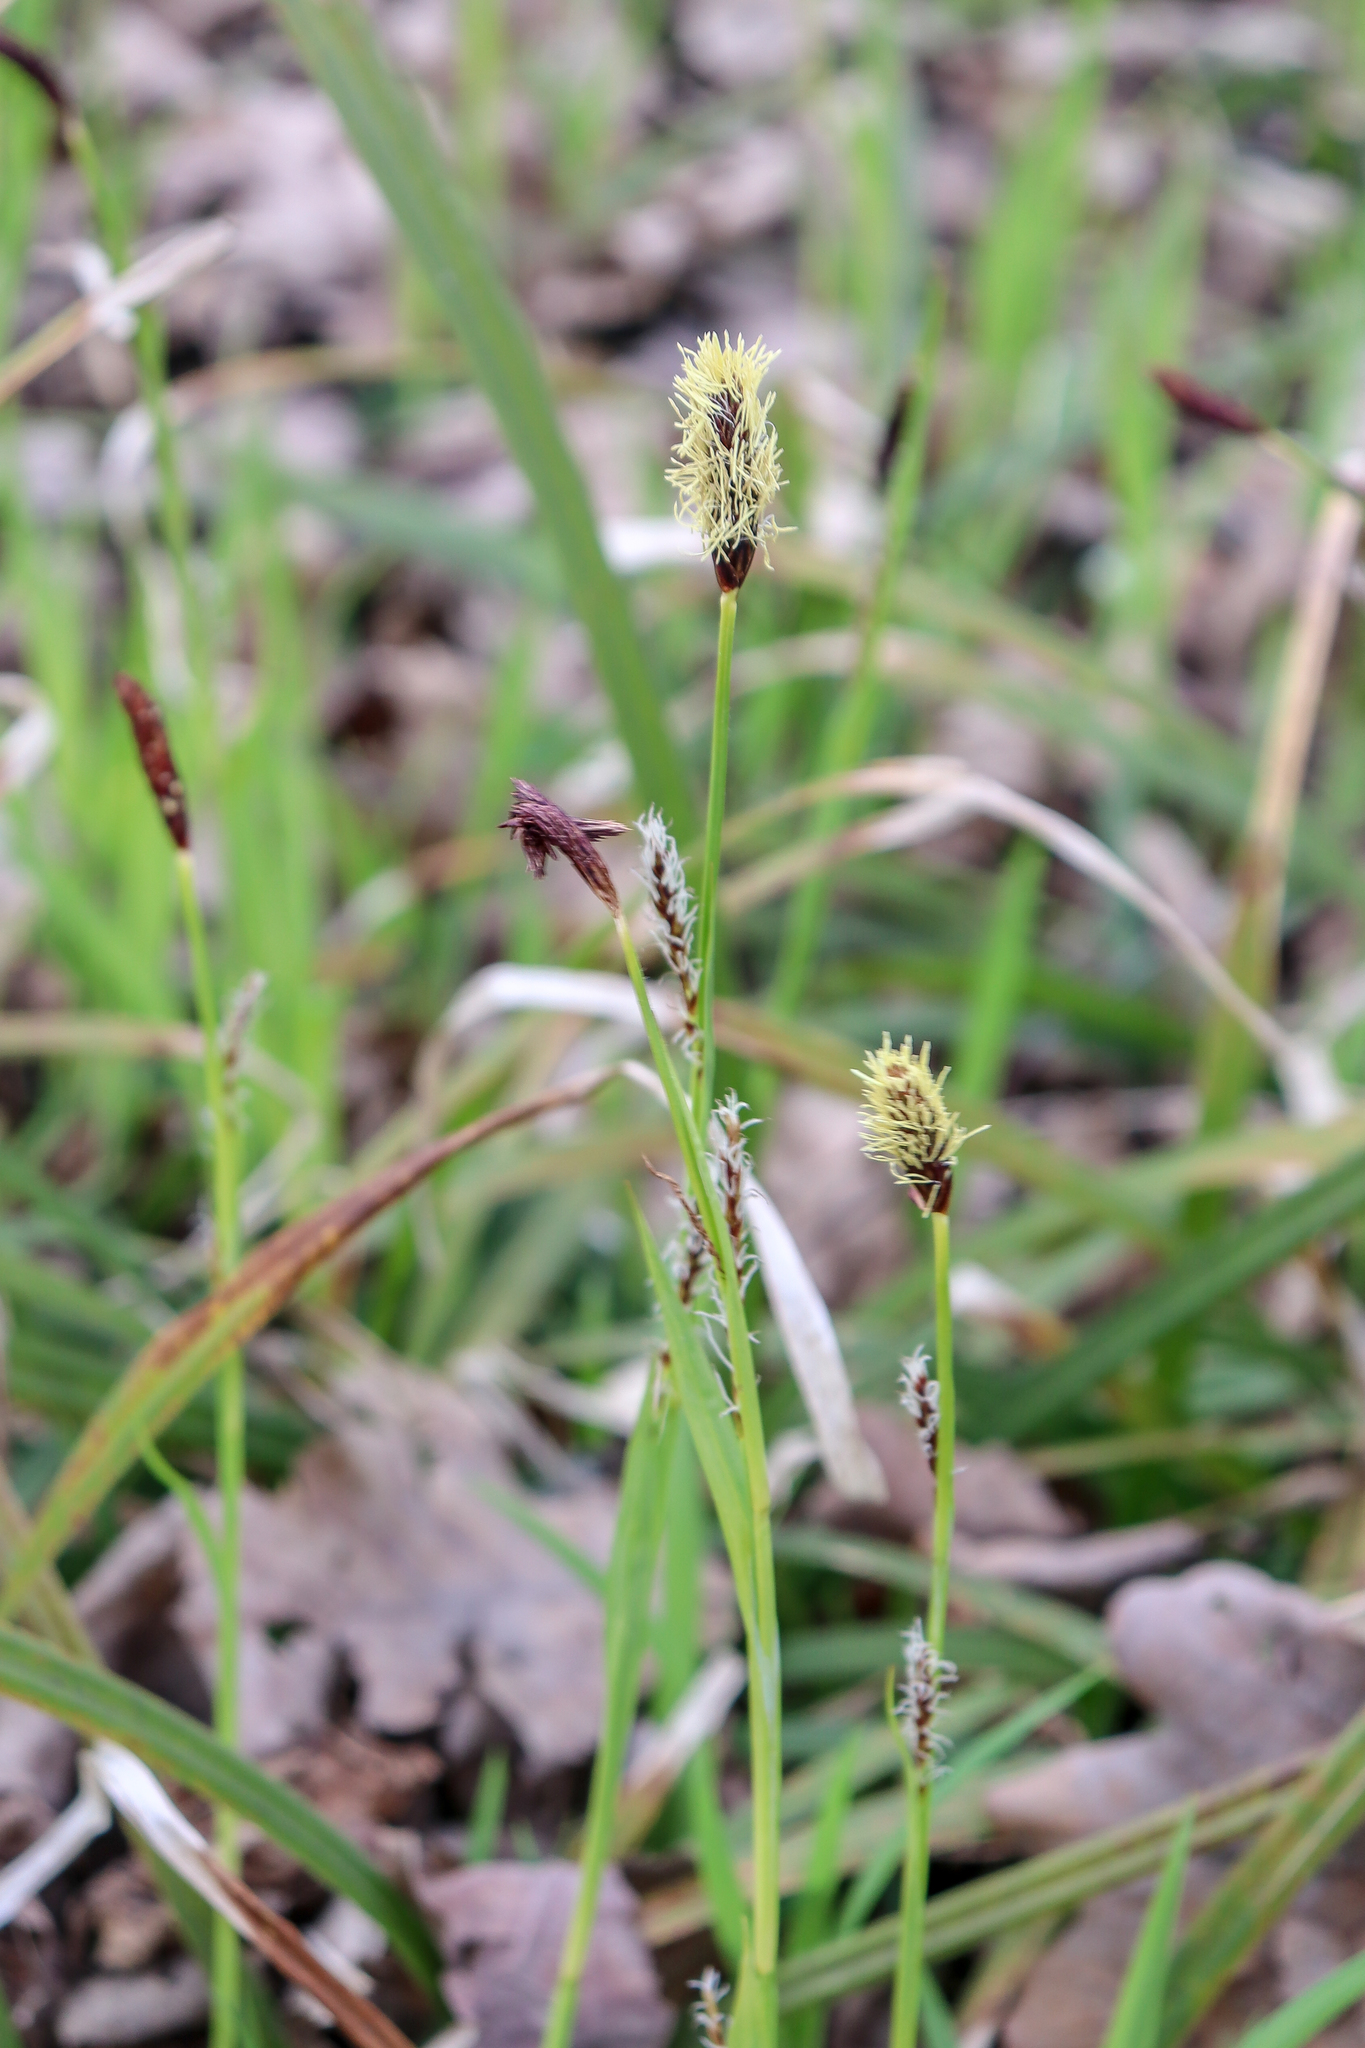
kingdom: Plantae
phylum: Tracheophyta
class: Liliopsida
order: Poales
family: Cyperaceae
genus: Carex
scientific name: Carex pilosa
